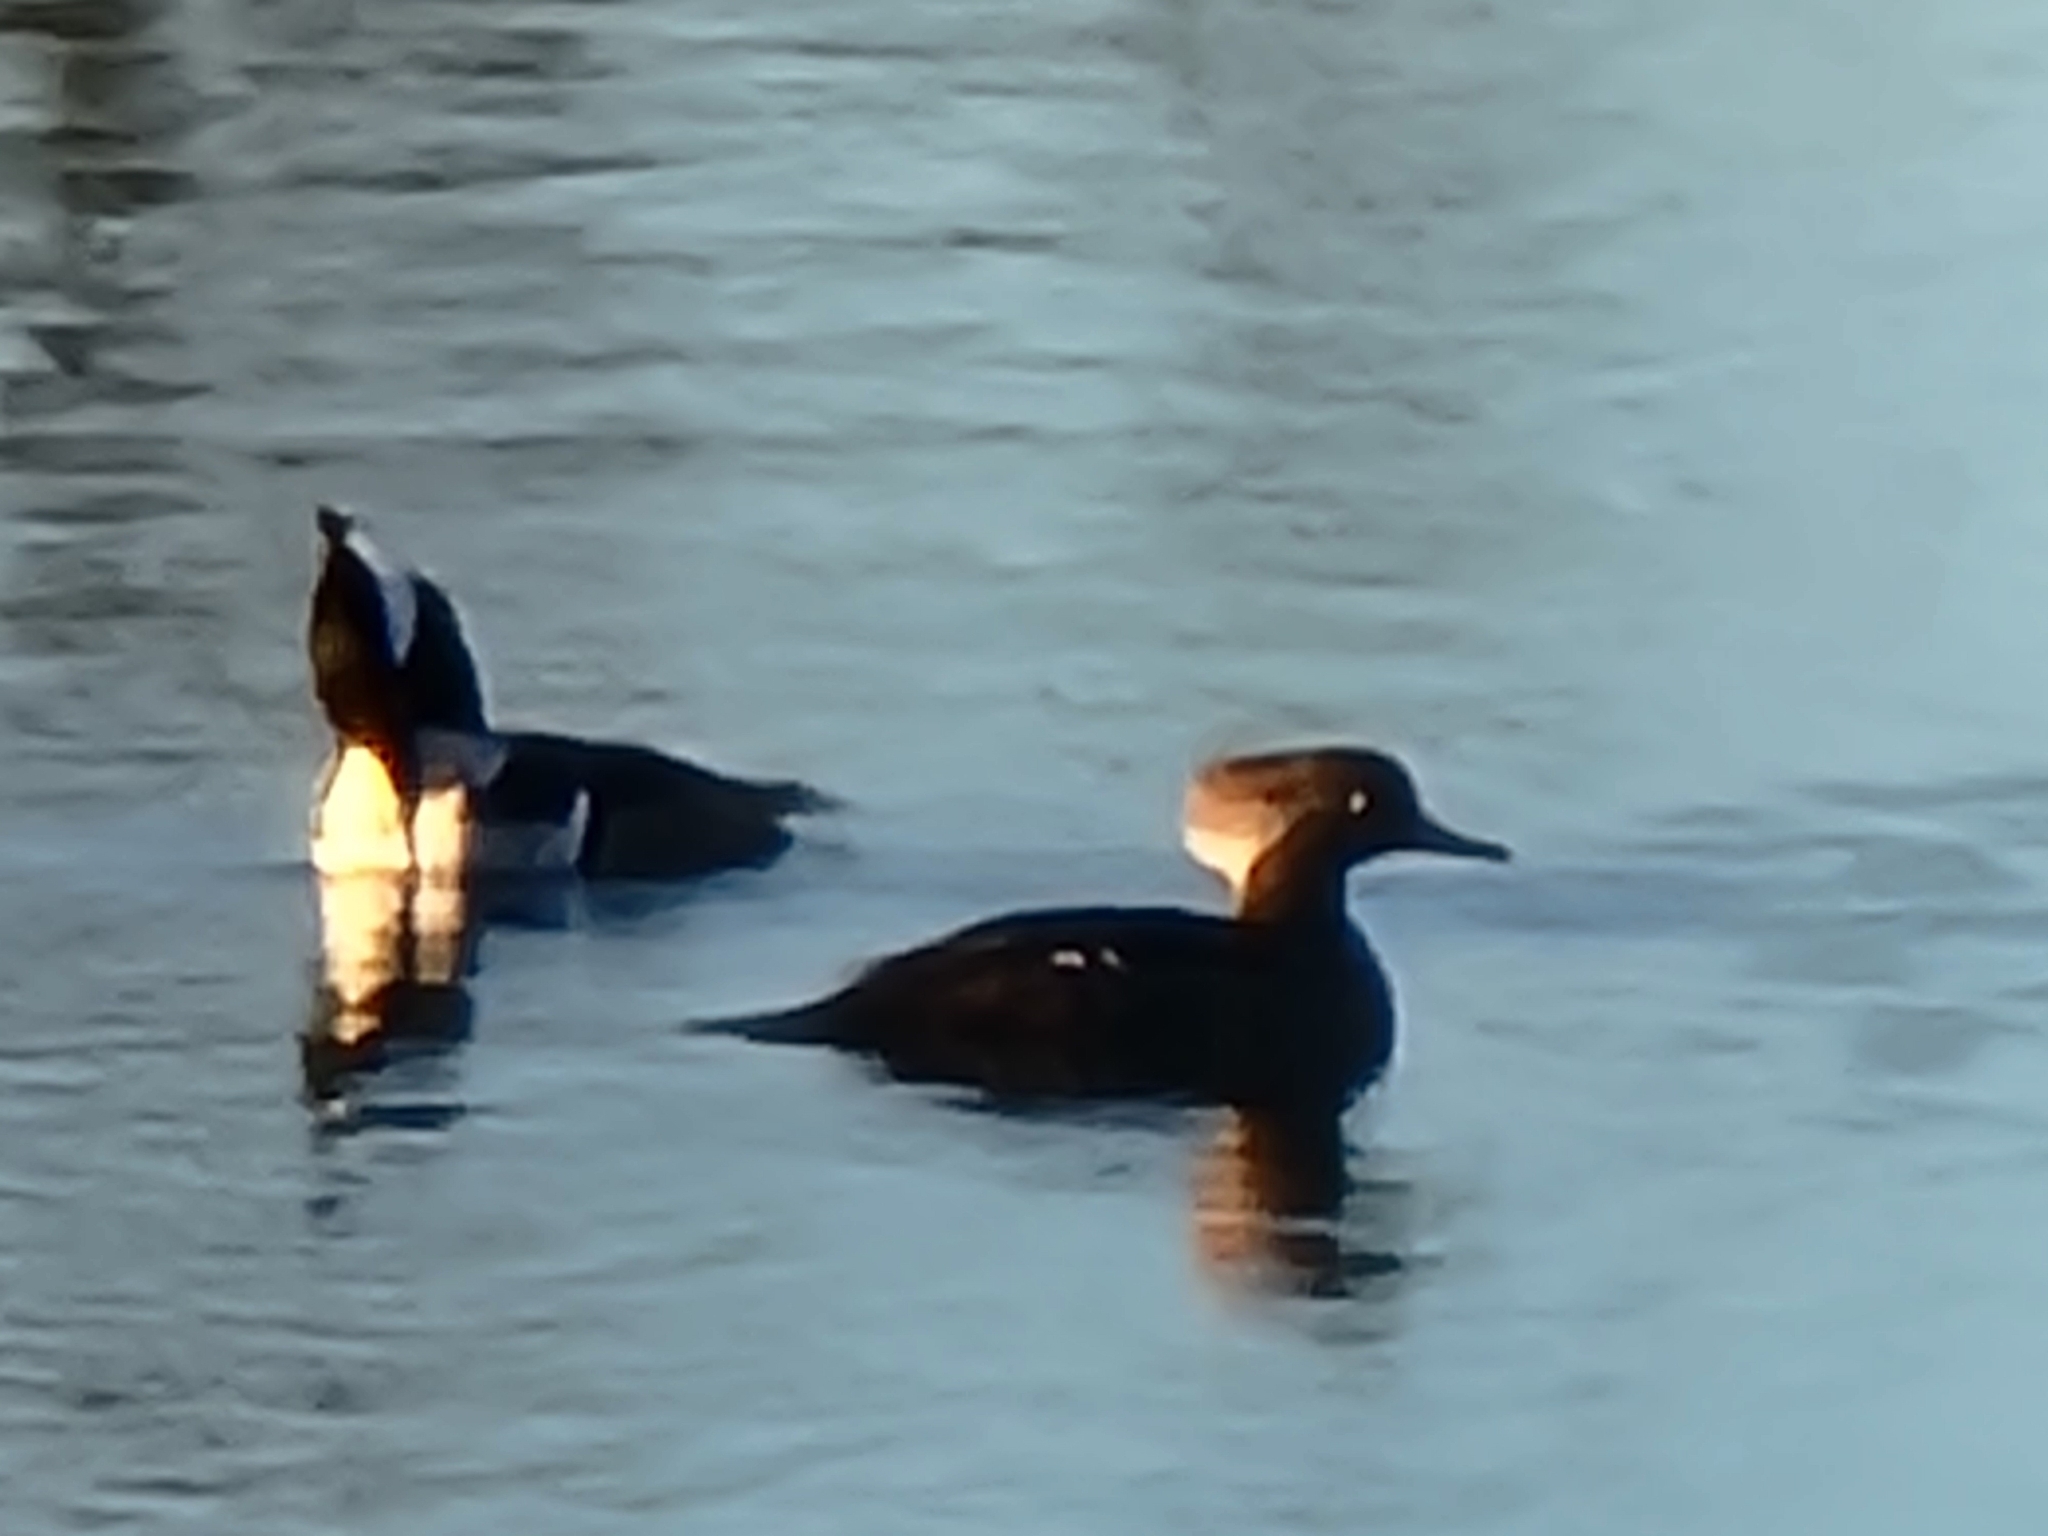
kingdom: Animalia
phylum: Chordata
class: Aves
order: Anseriformes
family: Anatidae
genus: Lophodytes
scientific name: Lophodytes cucullatus
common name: Hooded merganser
